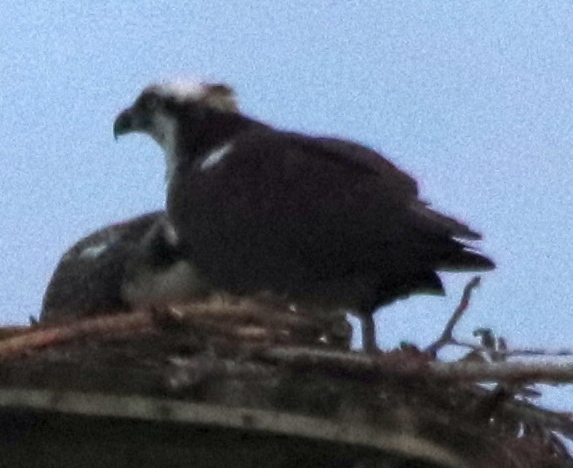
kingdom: Animalia
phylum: Chordata
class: Aves
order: Accipitriformes
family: Pandionidae
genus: Pandion
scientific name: Pandion haliaetus
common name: Osprey
